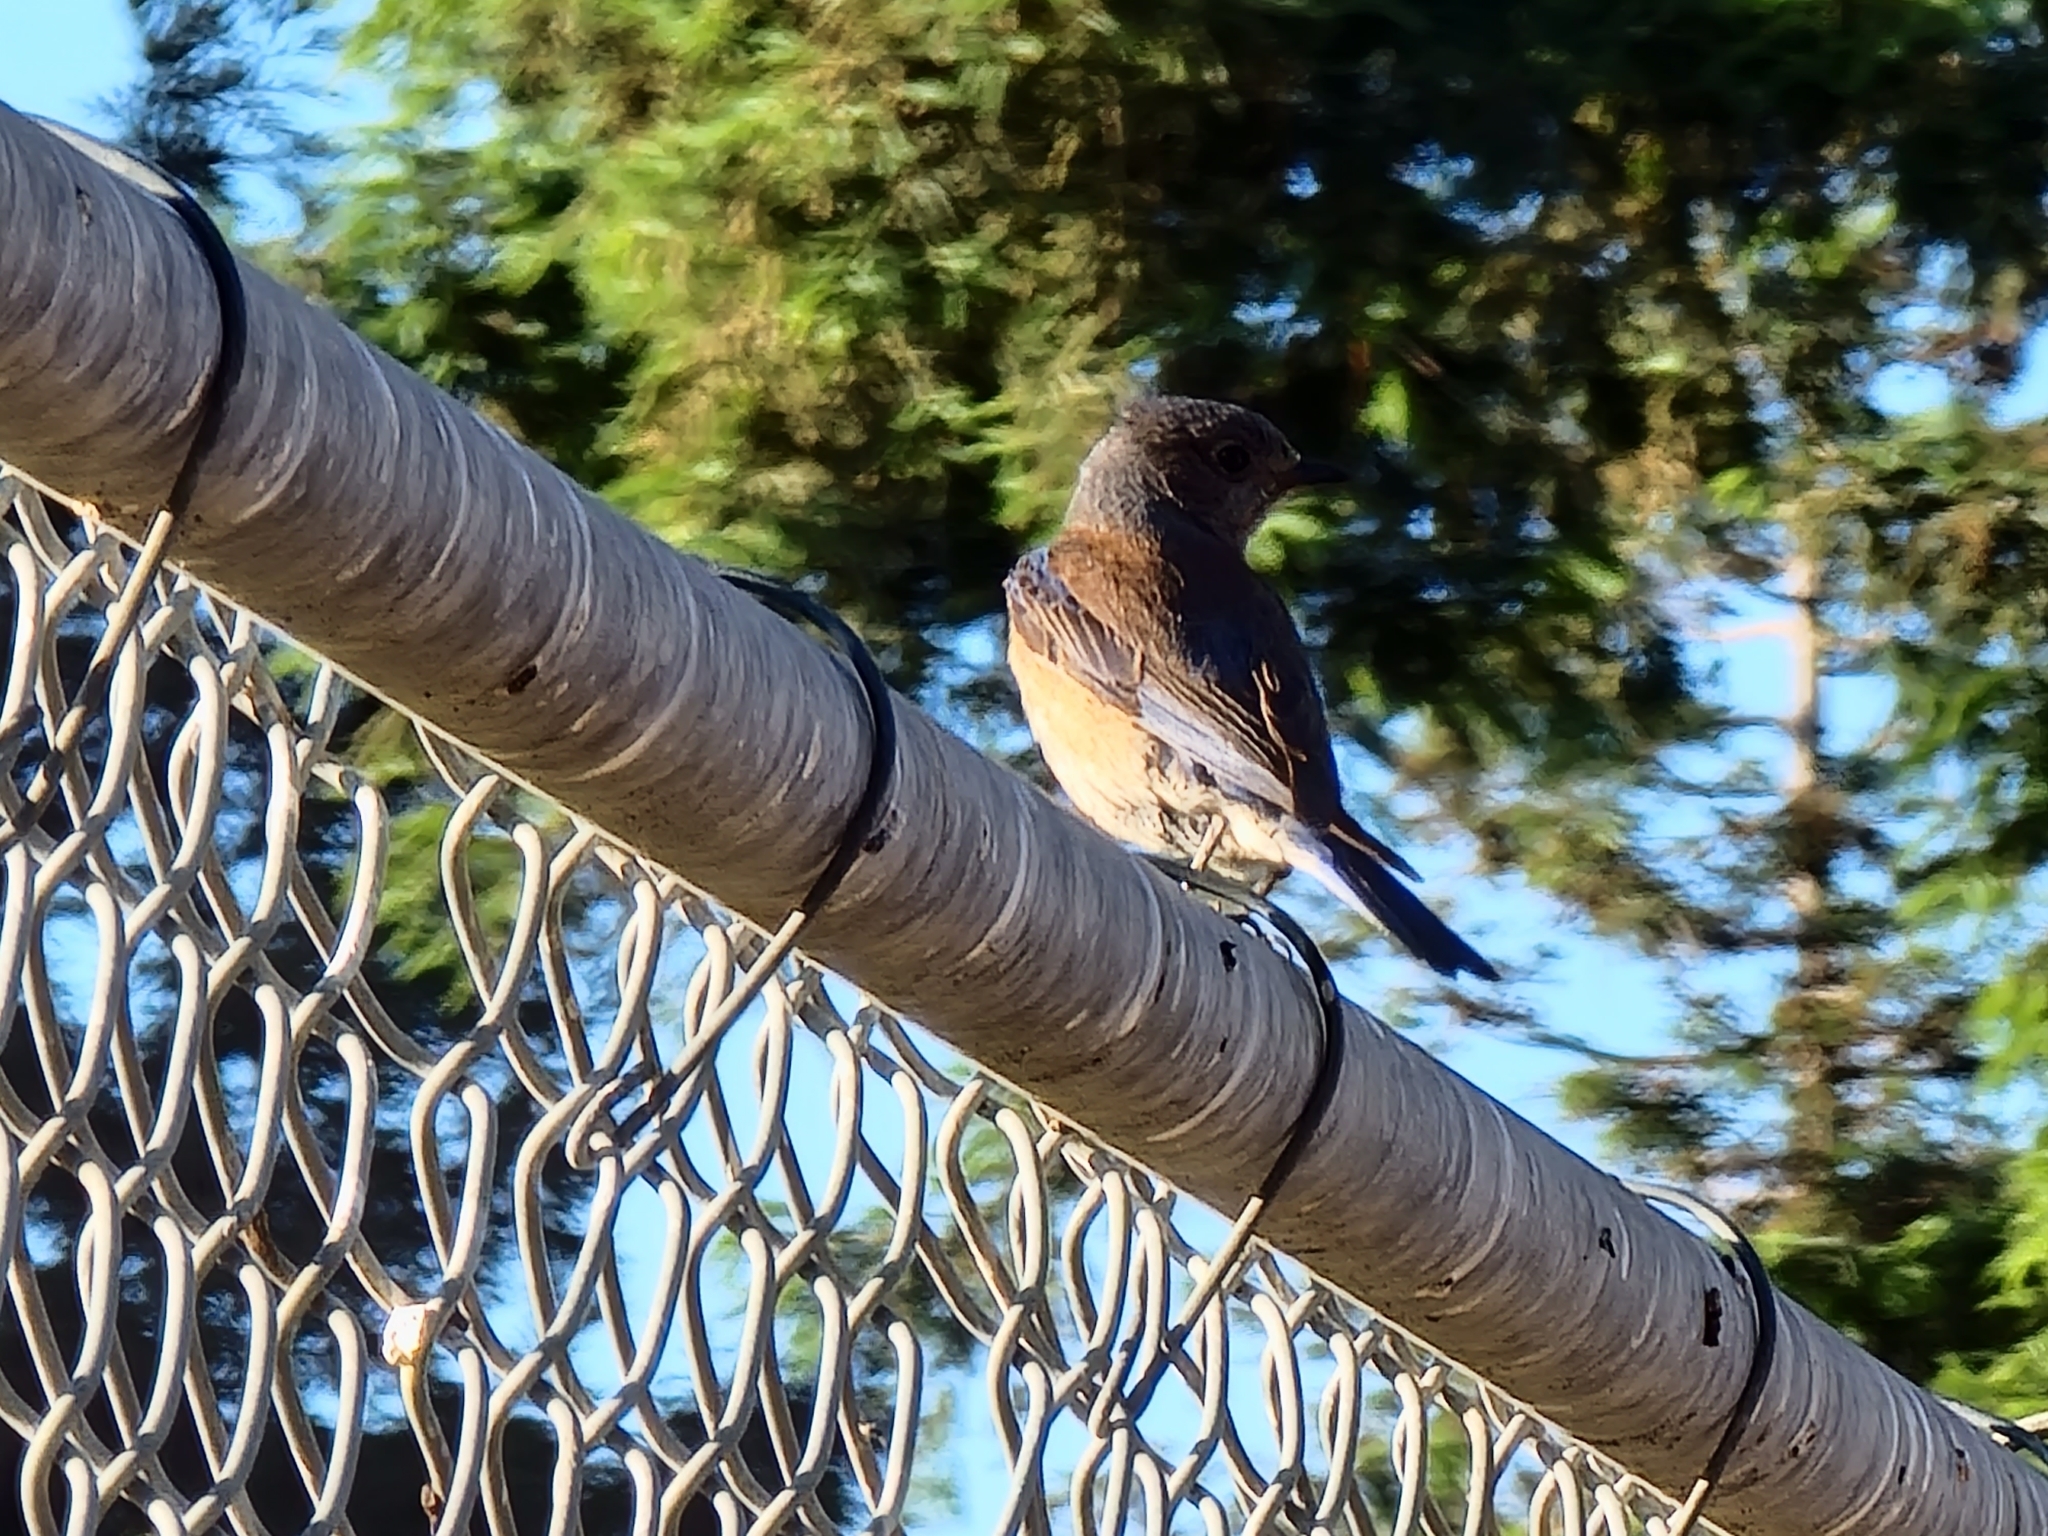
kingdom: Animalia
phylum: Chordata
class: Aves
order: Passeriformes
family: Turdidae
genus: Sialia
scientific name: Sialia mexicana
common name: Western bluebird
